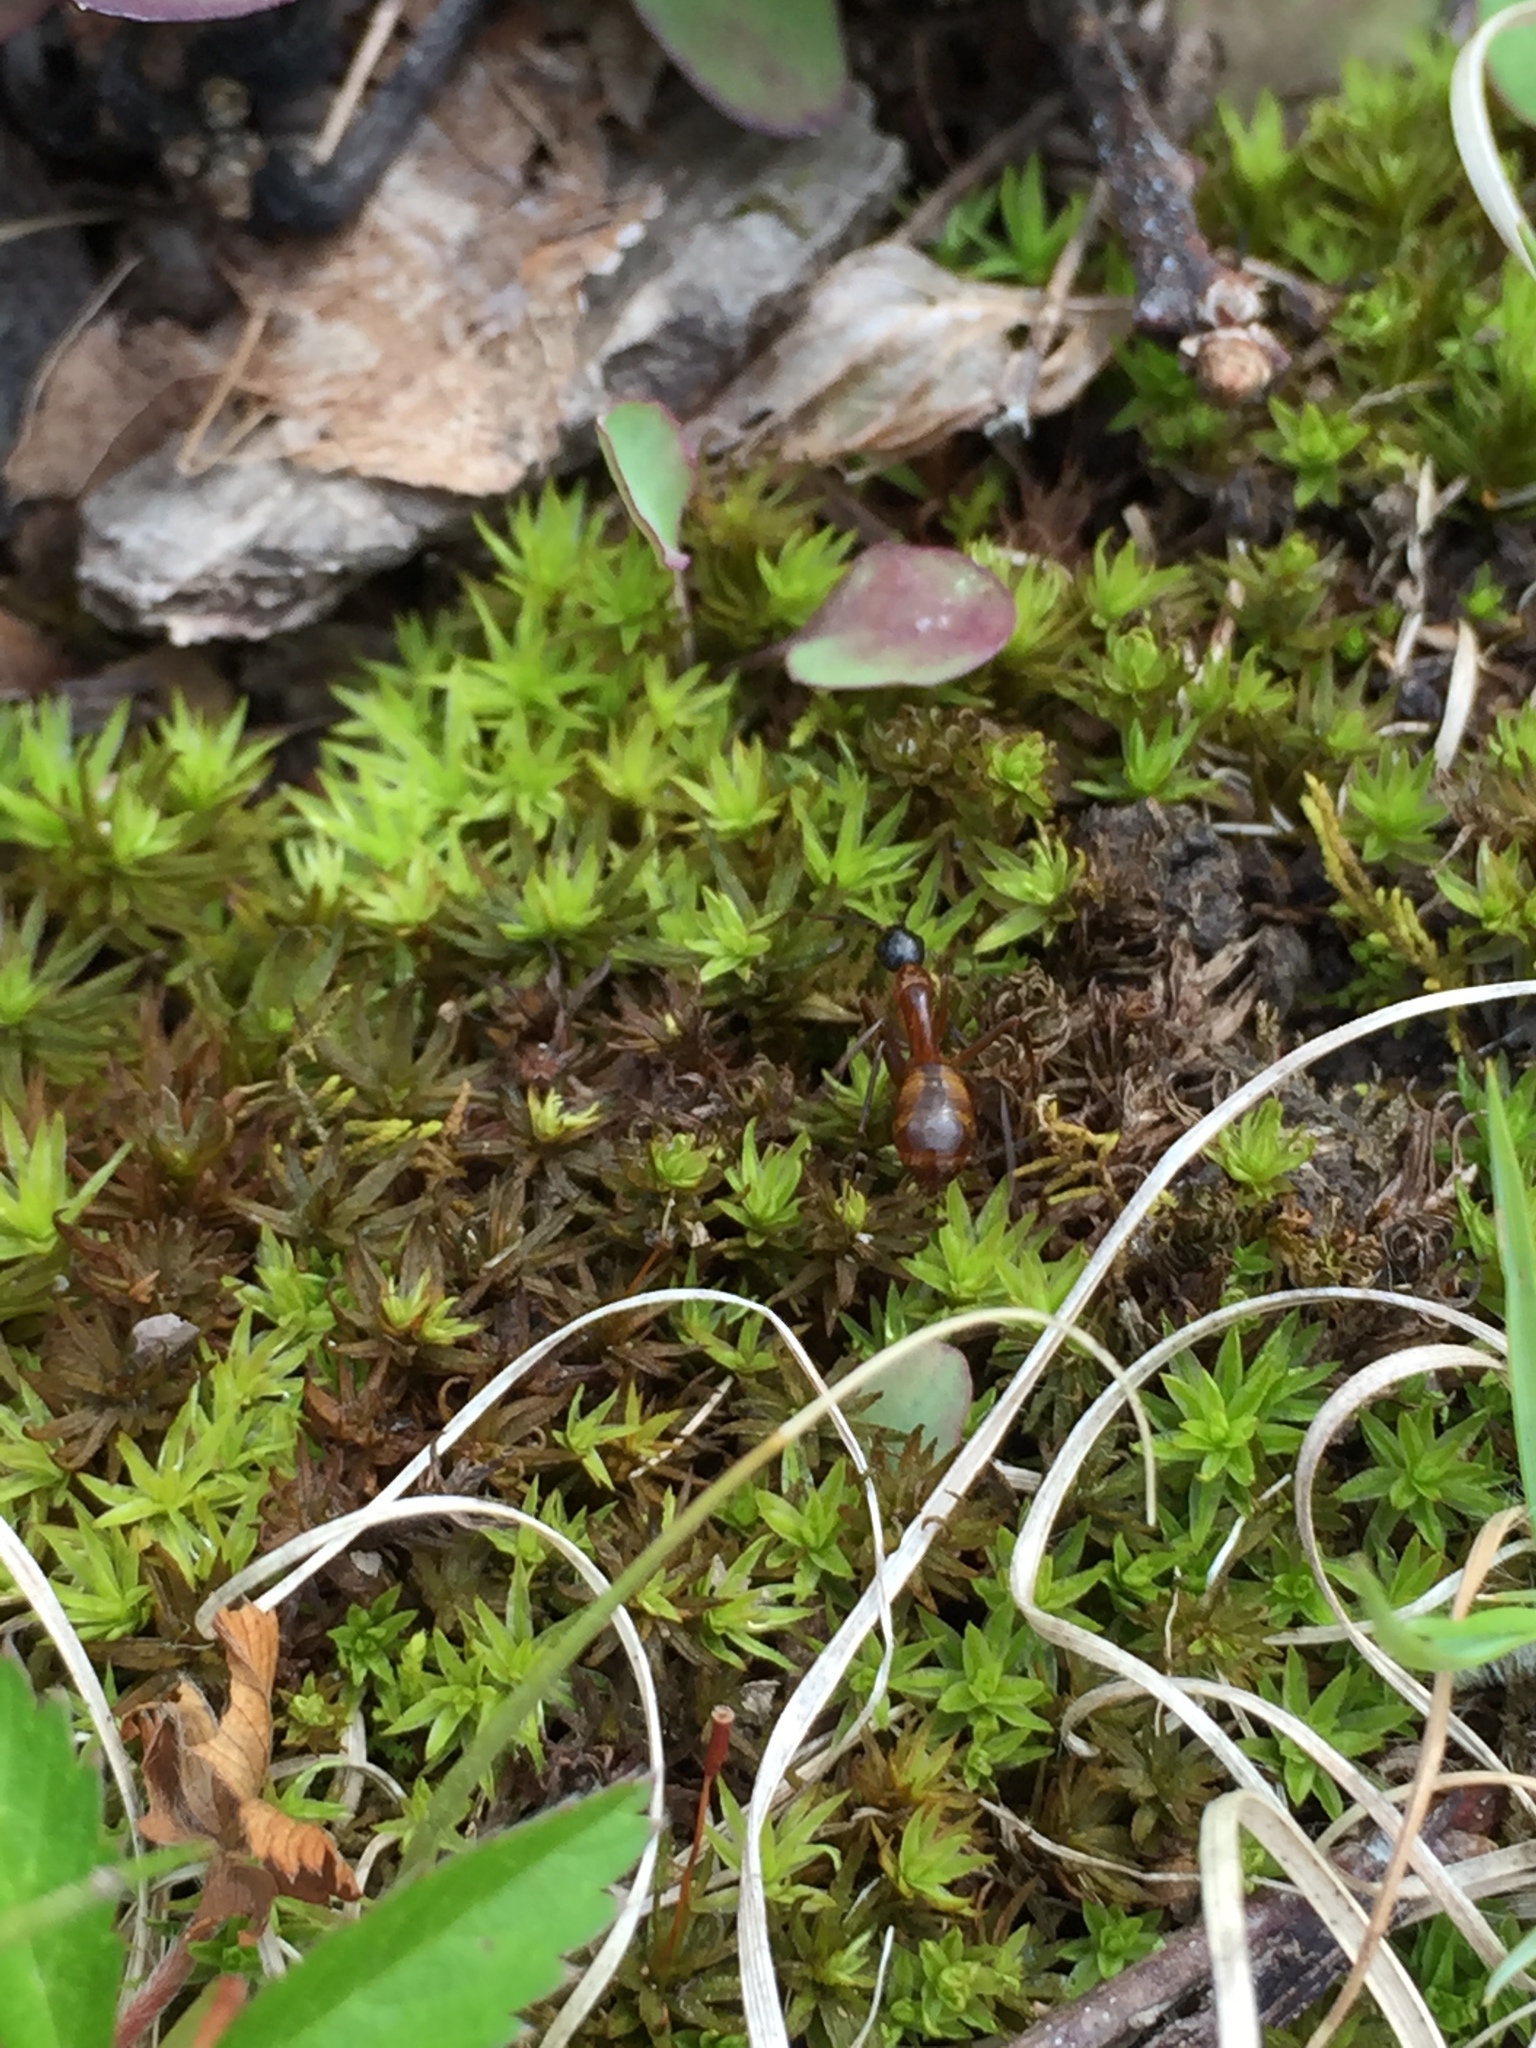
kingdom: Animalia
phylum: Arthropoda
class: Insecta
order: Hymenoptera
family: Formicidae
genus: Camponotus
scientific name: Camponotus americanus
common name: American carpenter ant
